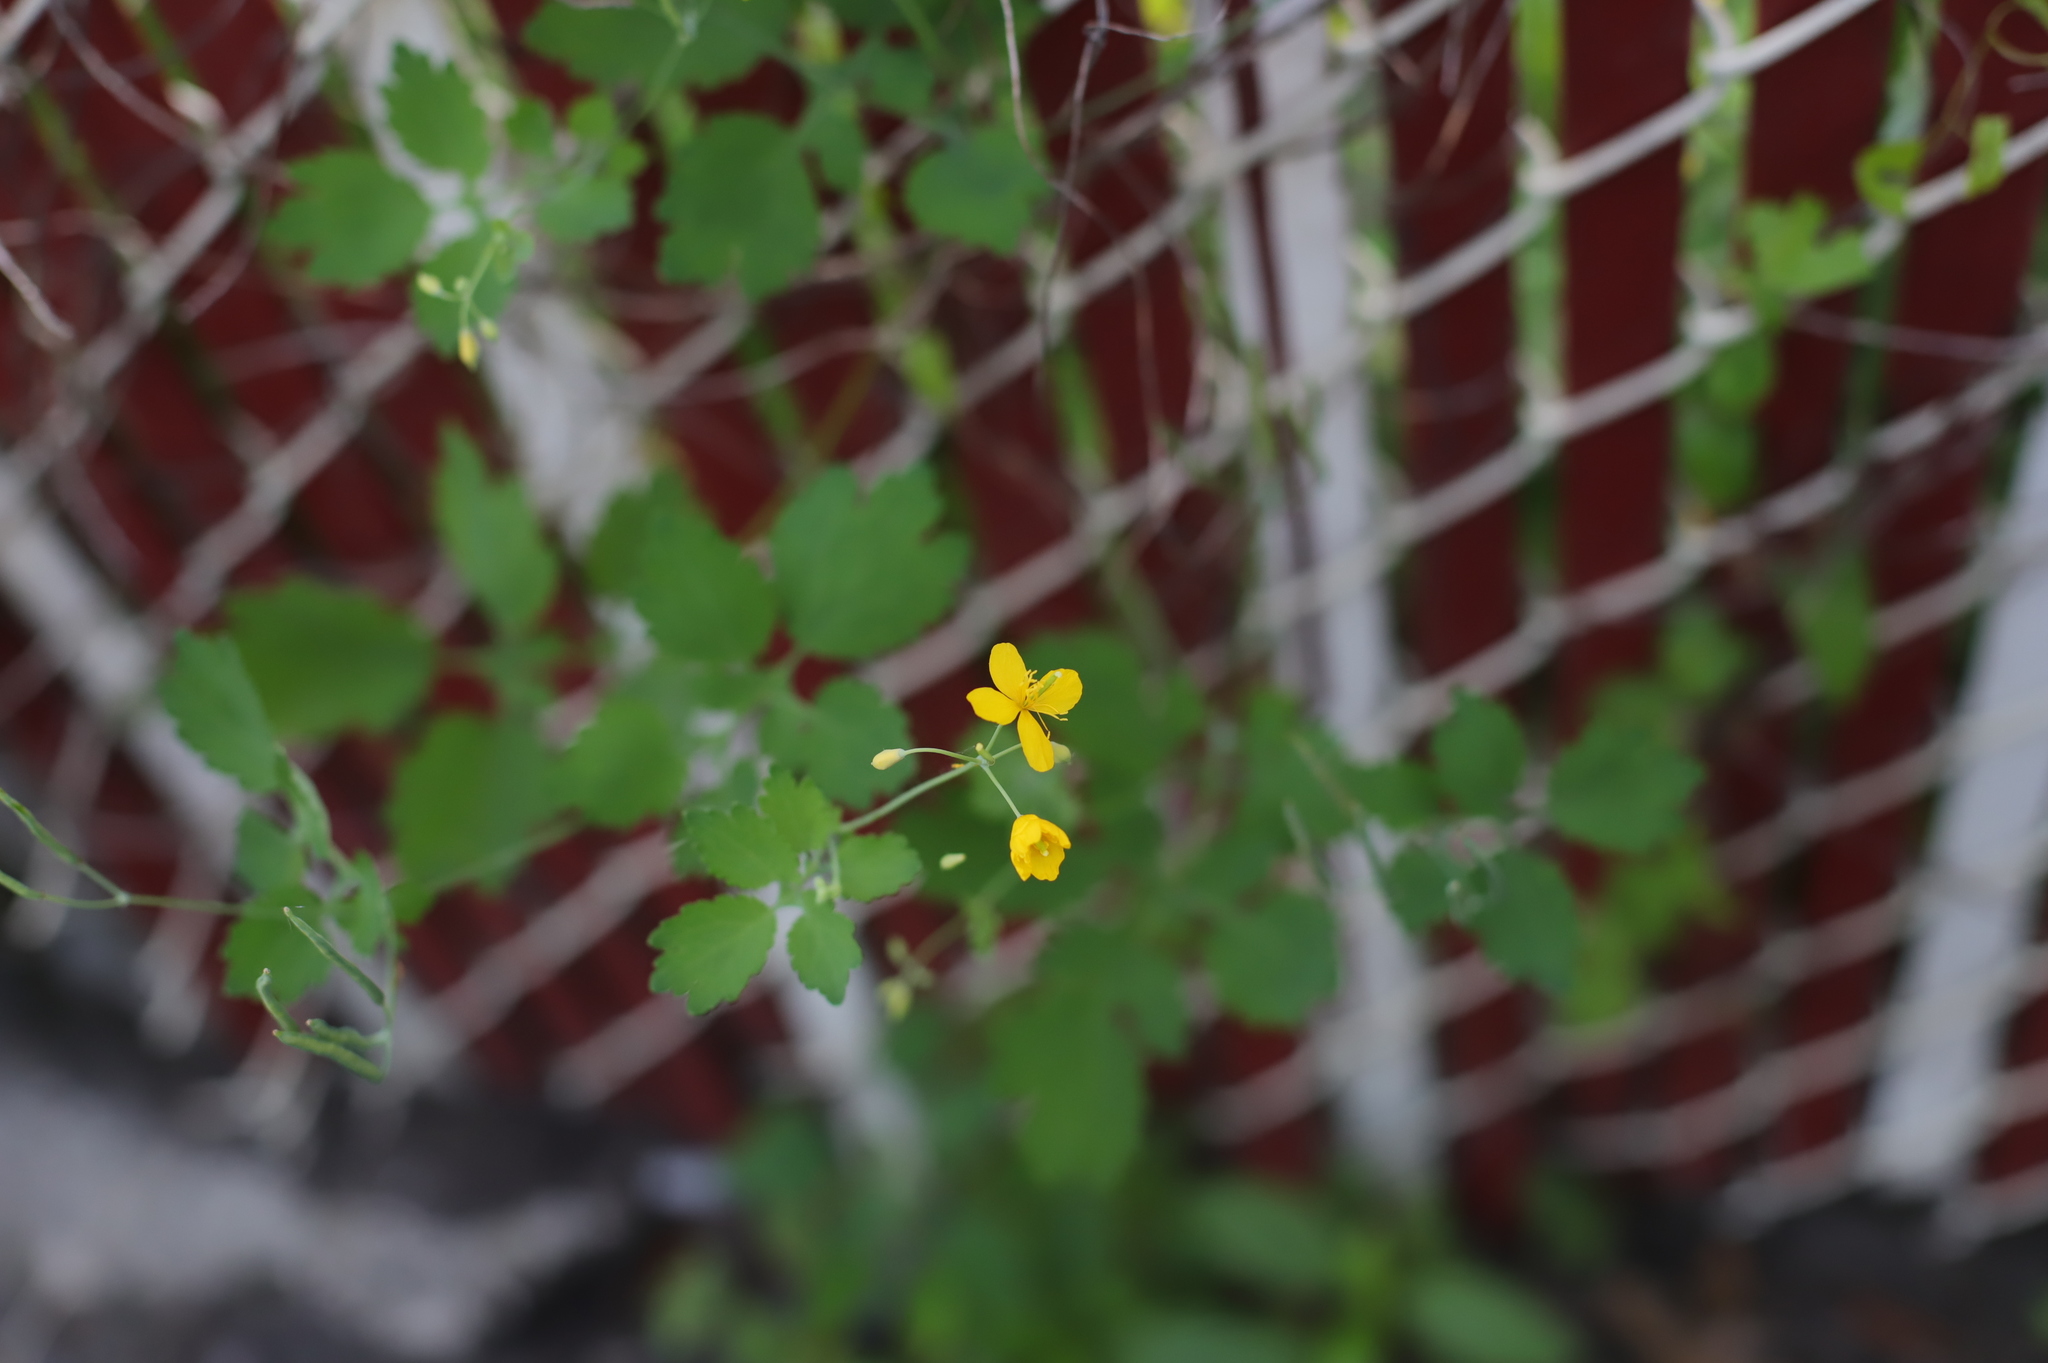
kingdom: Plantae
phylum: Tracheophyta
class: Magnoliopsida
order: Ranunculales
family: Papaveraceae
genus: Chelidonium
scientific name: Chelidonium majus
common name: Greater celandine
